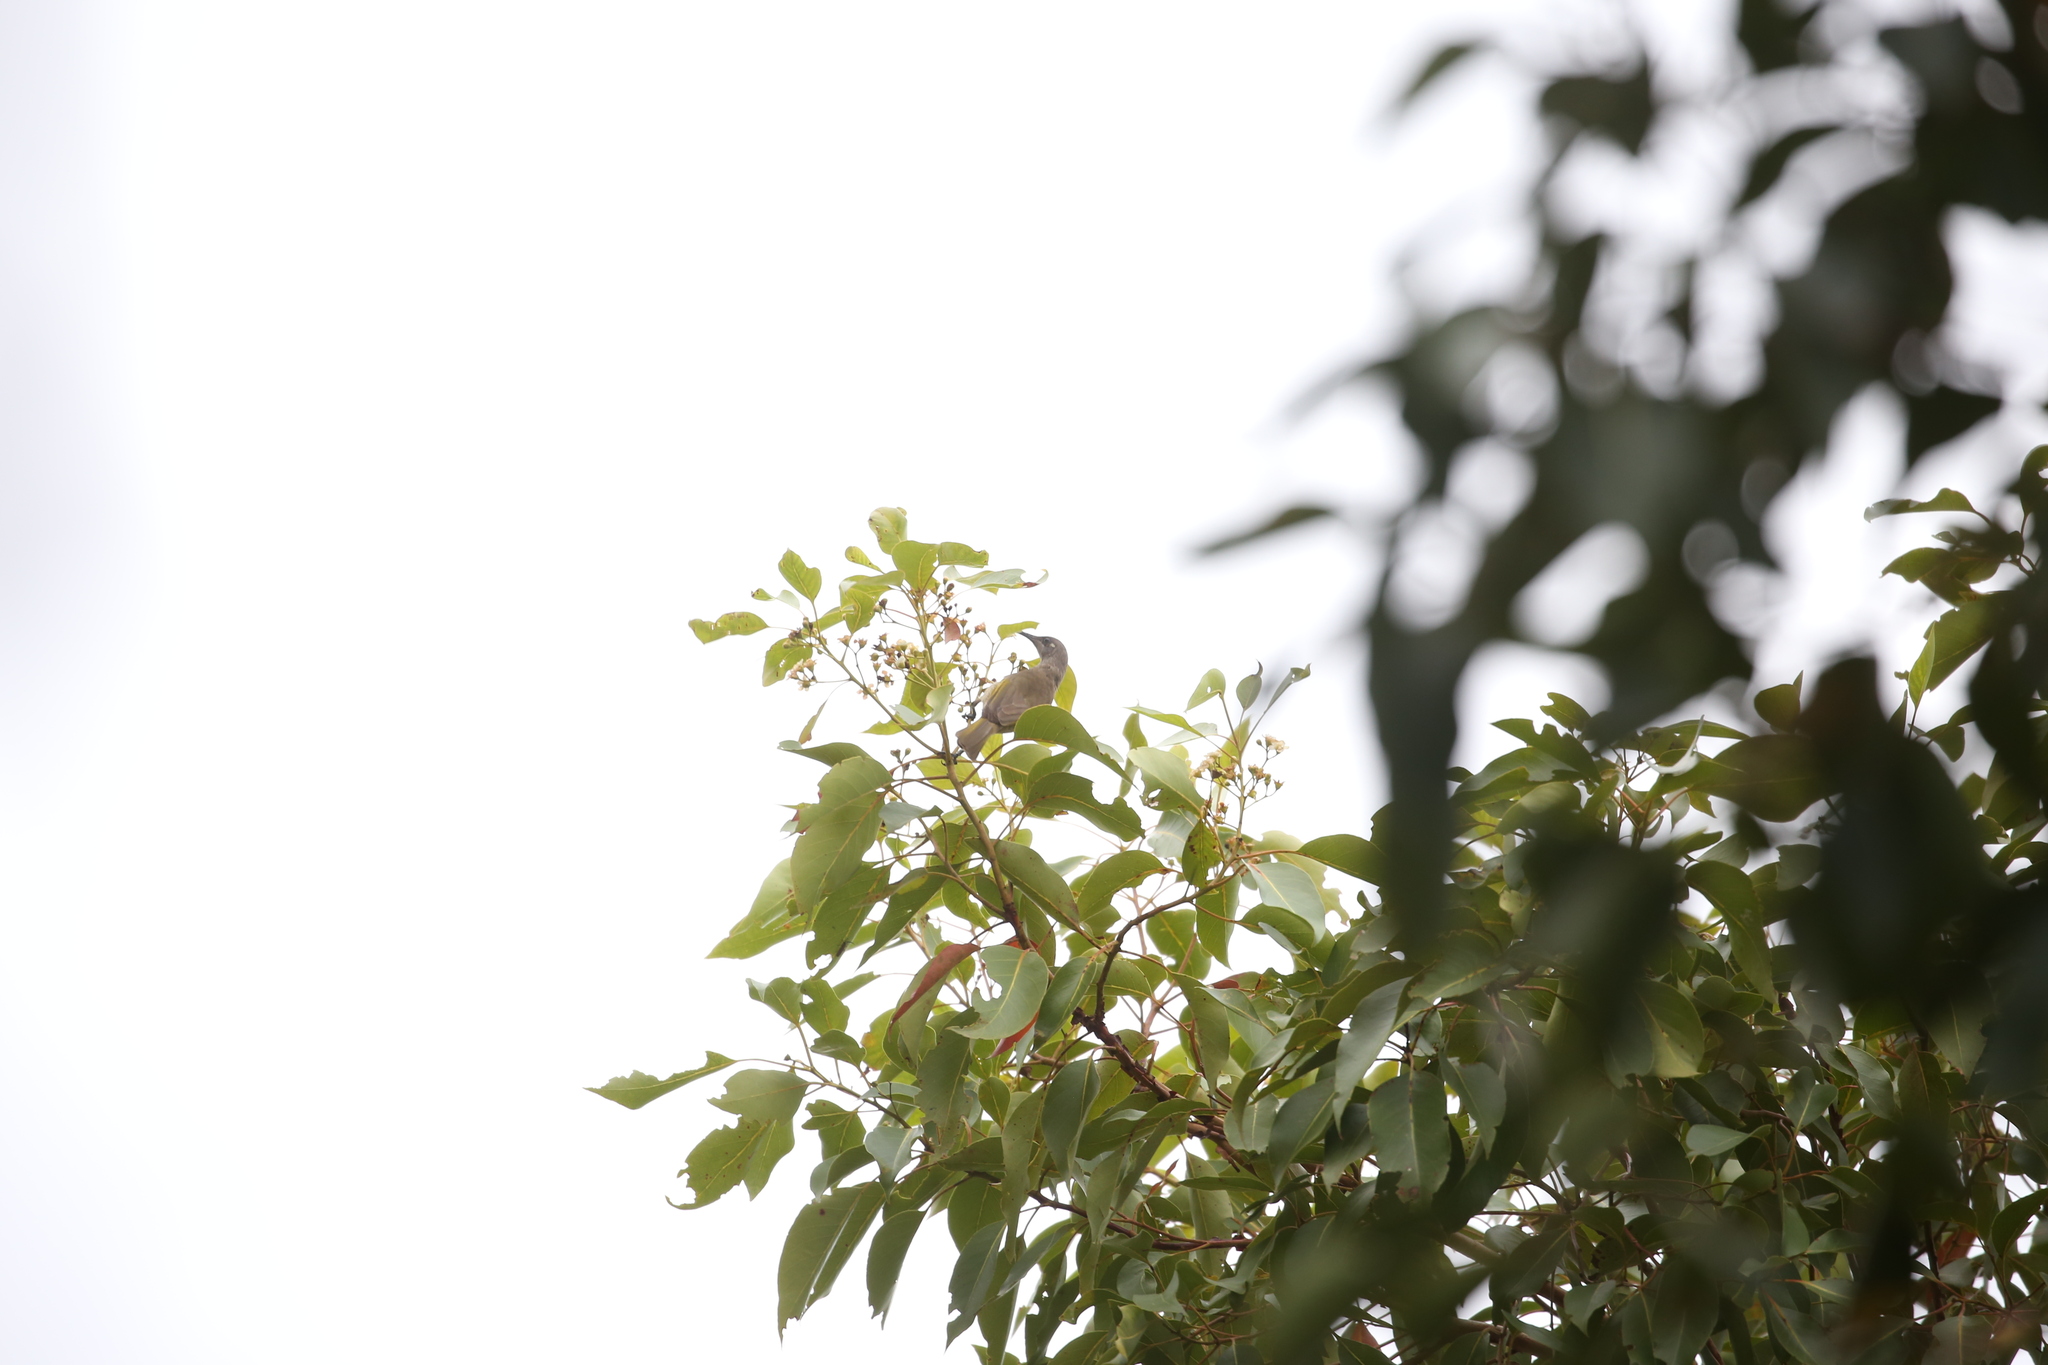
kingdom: Animalia
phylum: Chordata
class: Aves
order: Passeriformes
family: Meliphagidae
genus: Lichmera
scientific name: Lichmera indistincta
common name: Brown honeyeater
